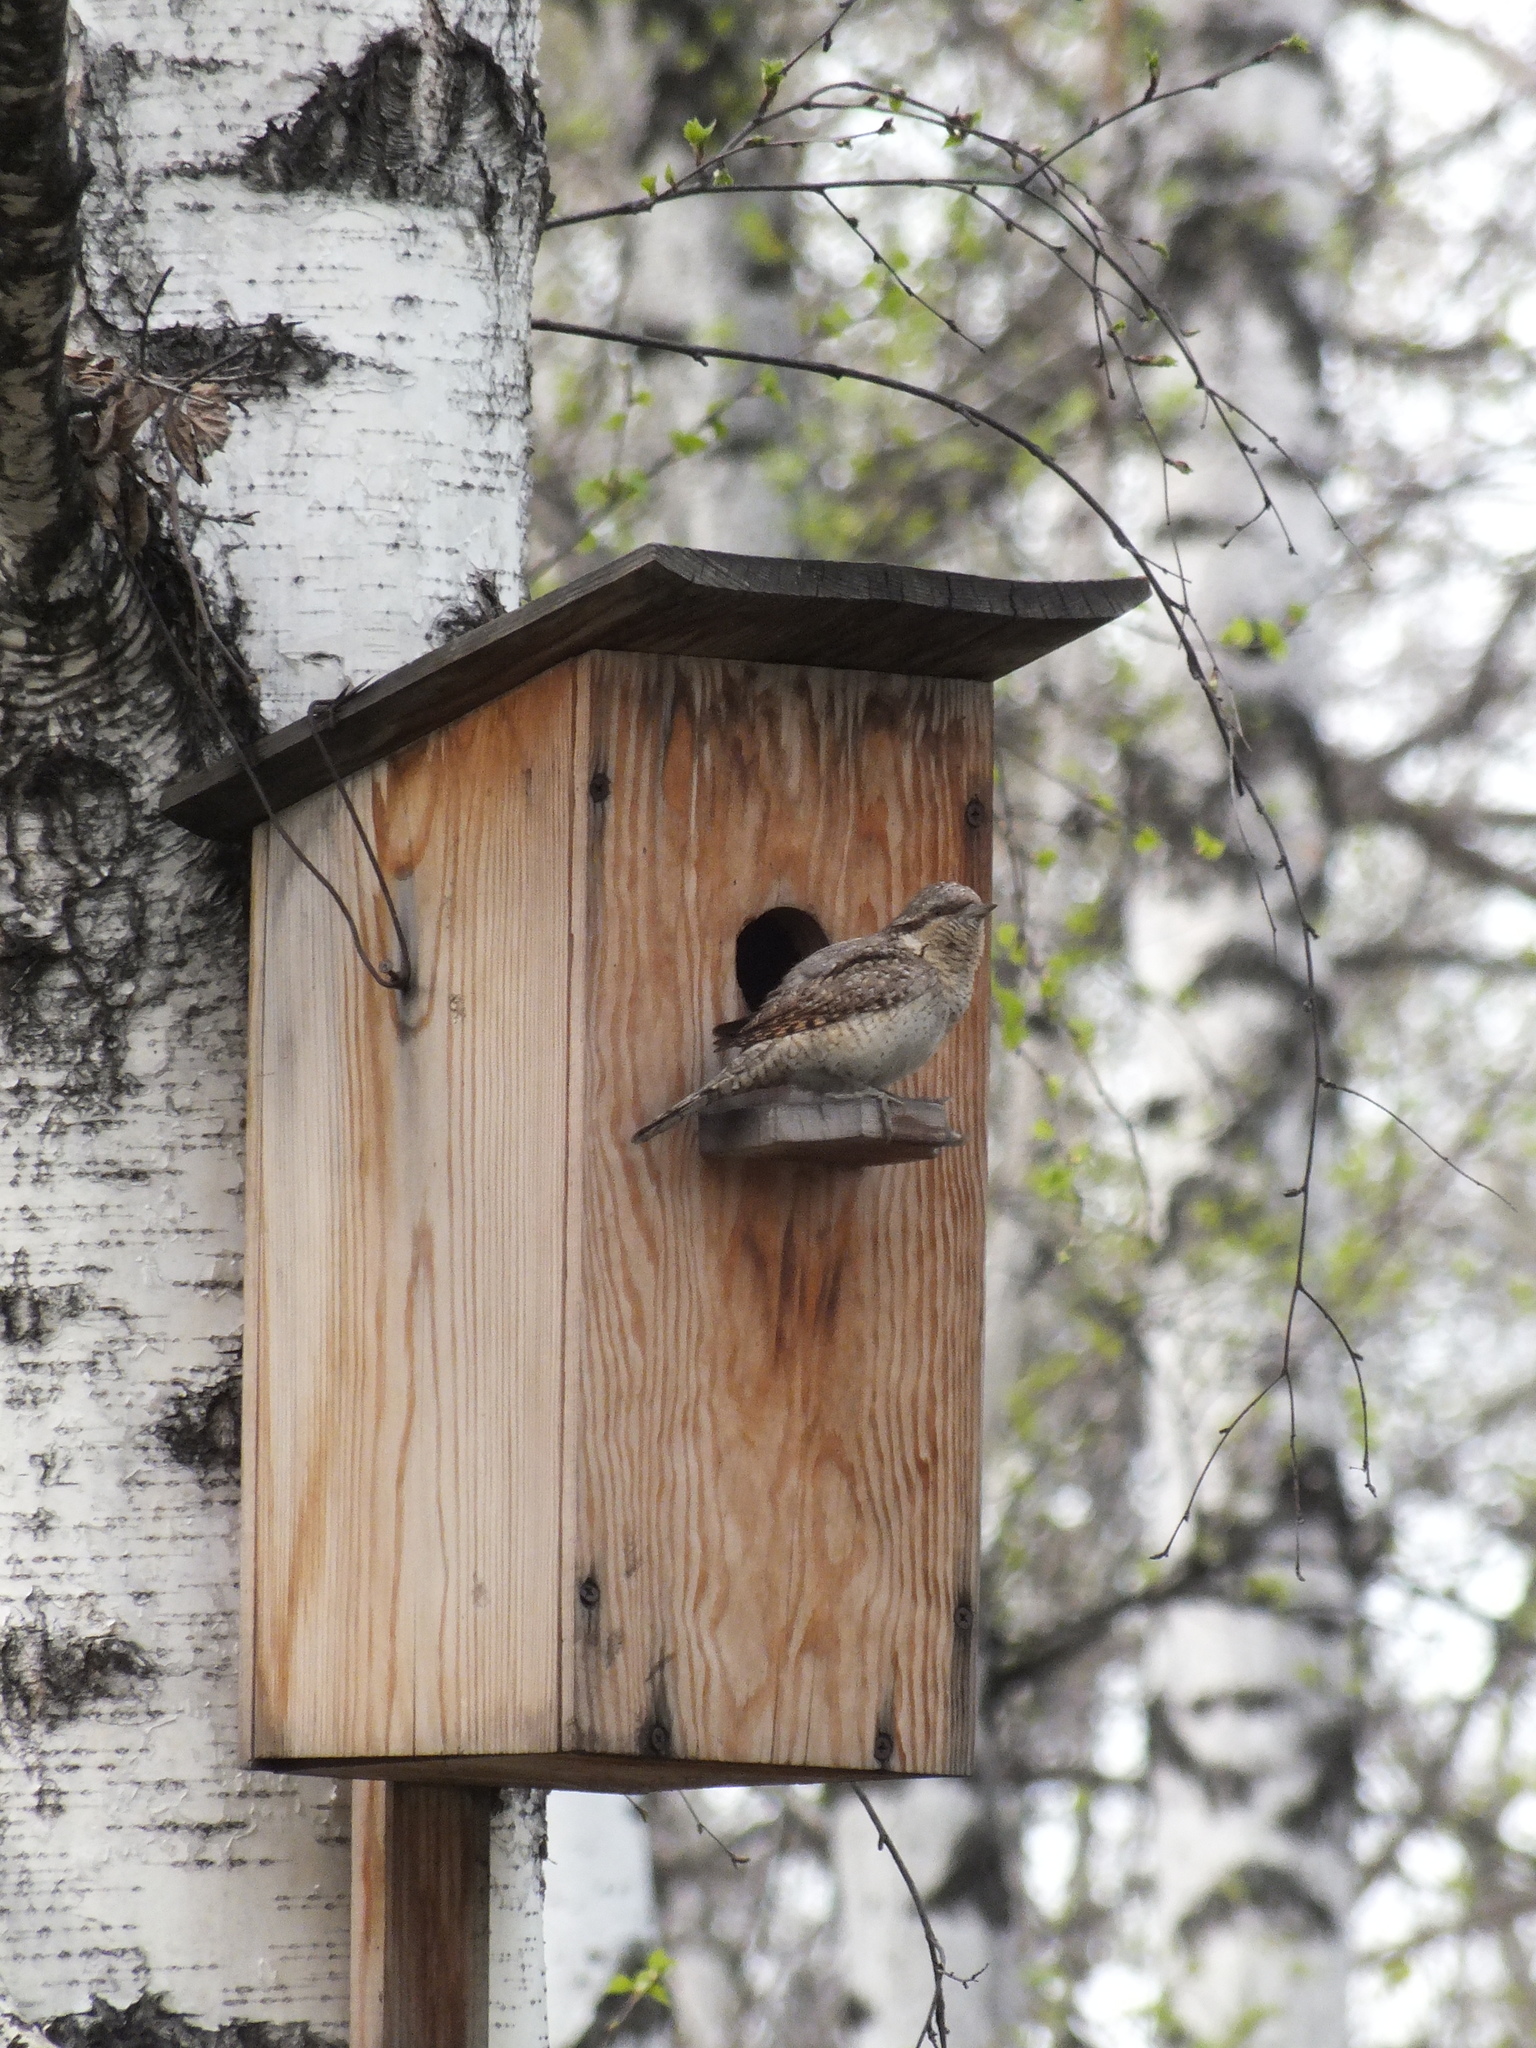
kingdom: Animalia
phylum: Chordata
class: Aves
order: Piciformes
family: Picidae
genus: Jynx
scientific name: Jynx torquilla
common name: Eurasian wryneck
